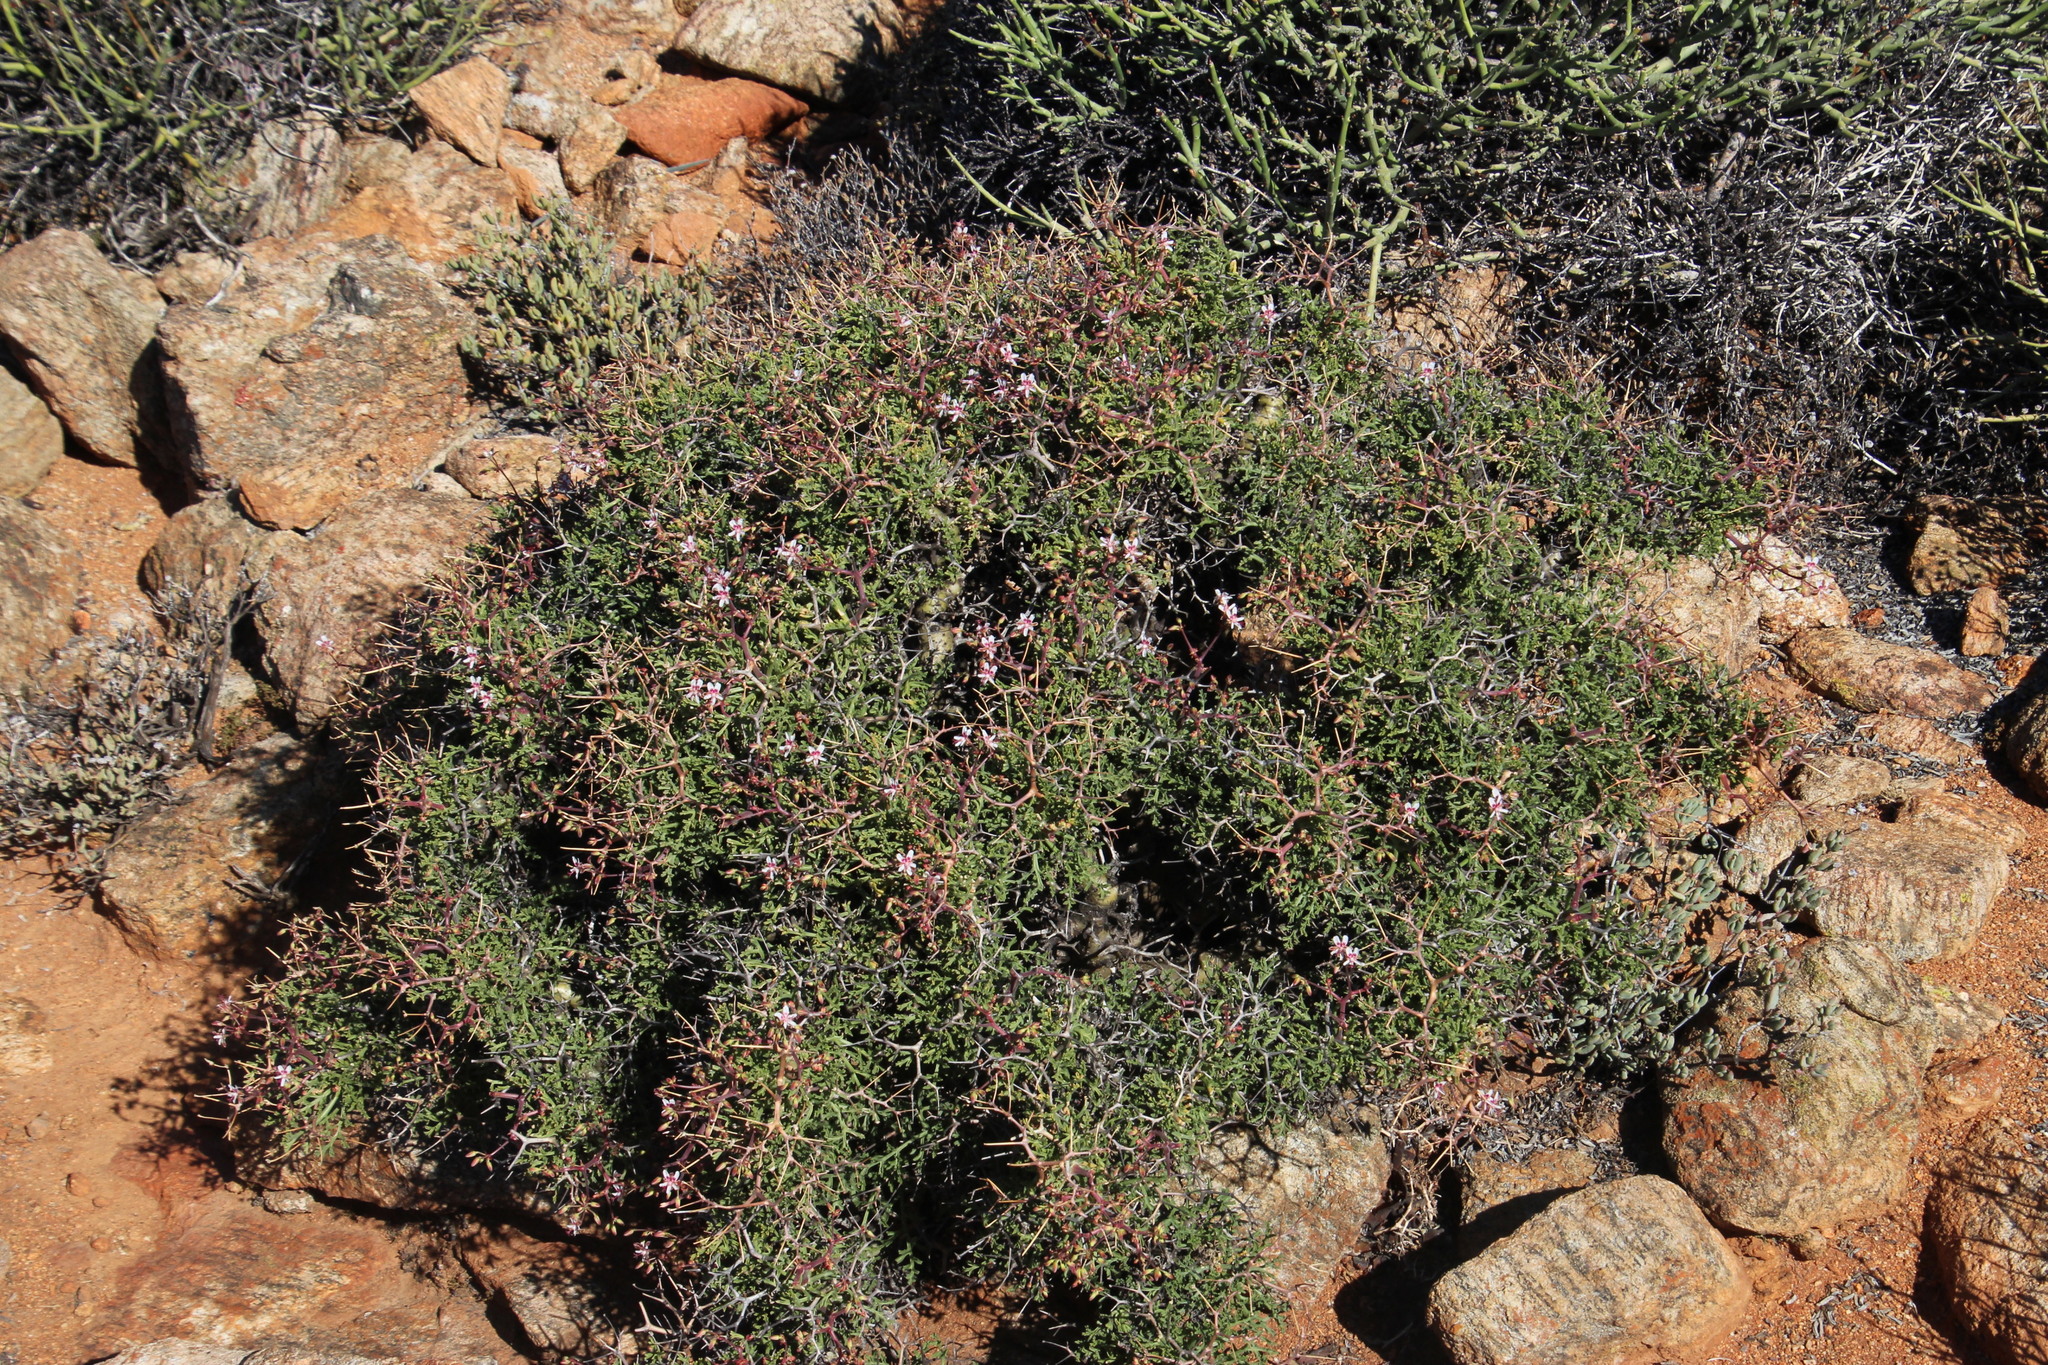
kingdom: Plantae
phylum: Tracheophyta
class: Magnoliopsida
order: Geraniales
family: Geraniaceae
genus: Pelargonium
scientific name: Pelargonium crithmifolium
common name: Samphire-leaf pelargonium
